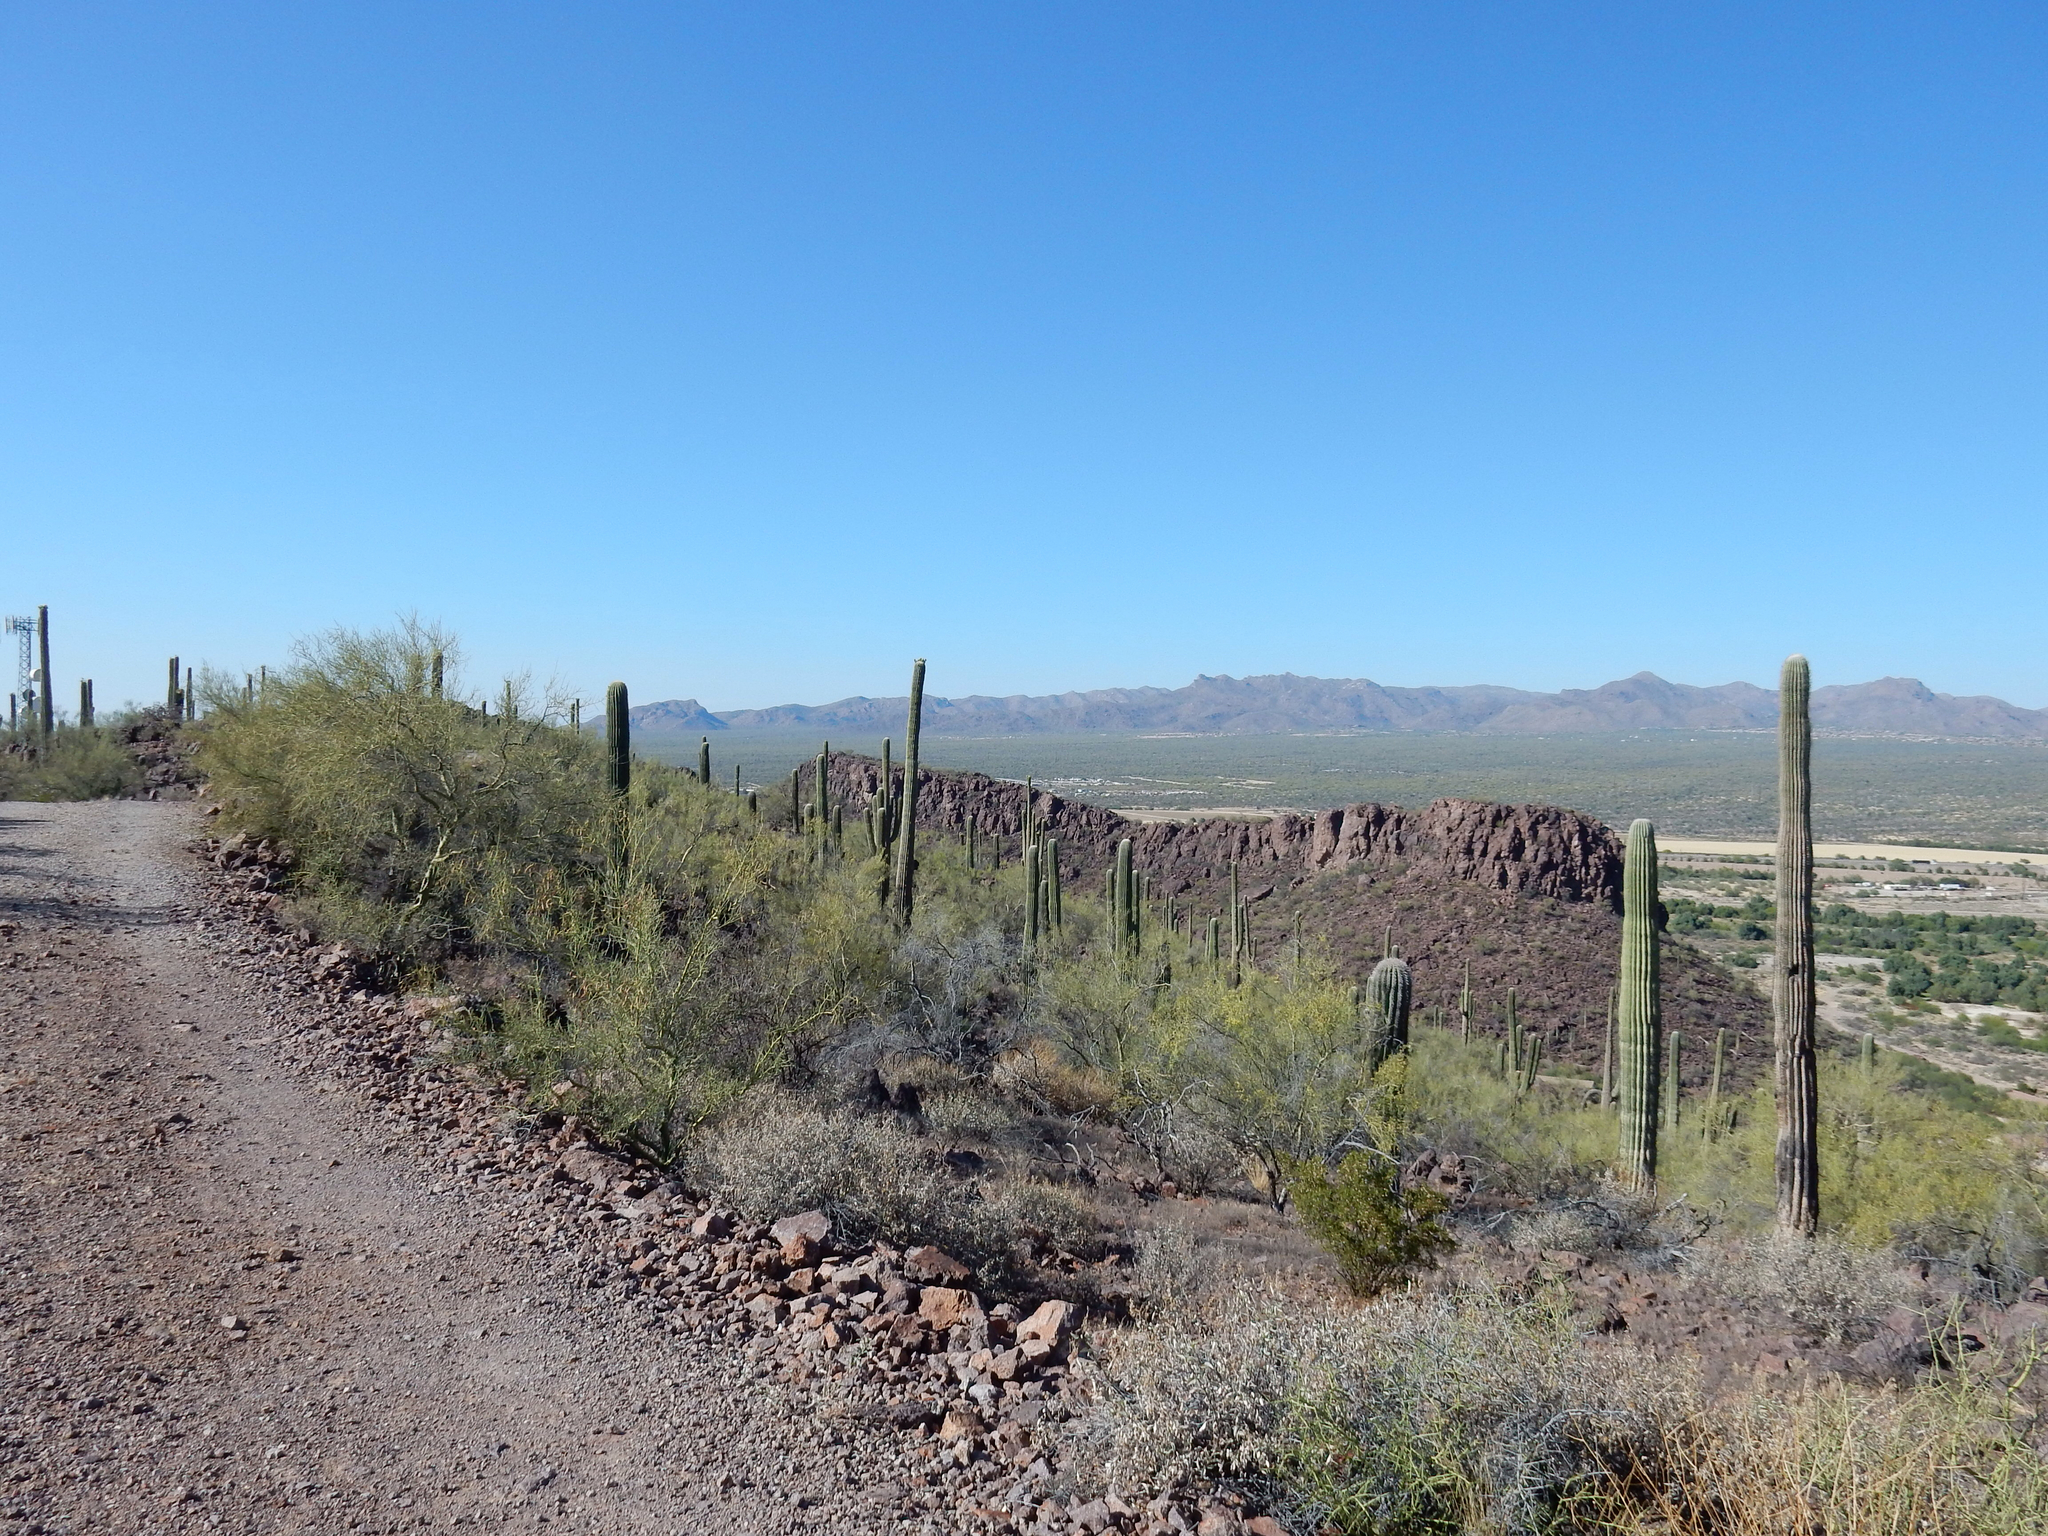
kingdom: Plantae
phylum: Tracheophyta
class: Magnoliopsida
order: Caryophyllales
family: Cactaceae
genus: Carnegiea
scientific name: Carnegiea gigantea
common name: Saguaro
